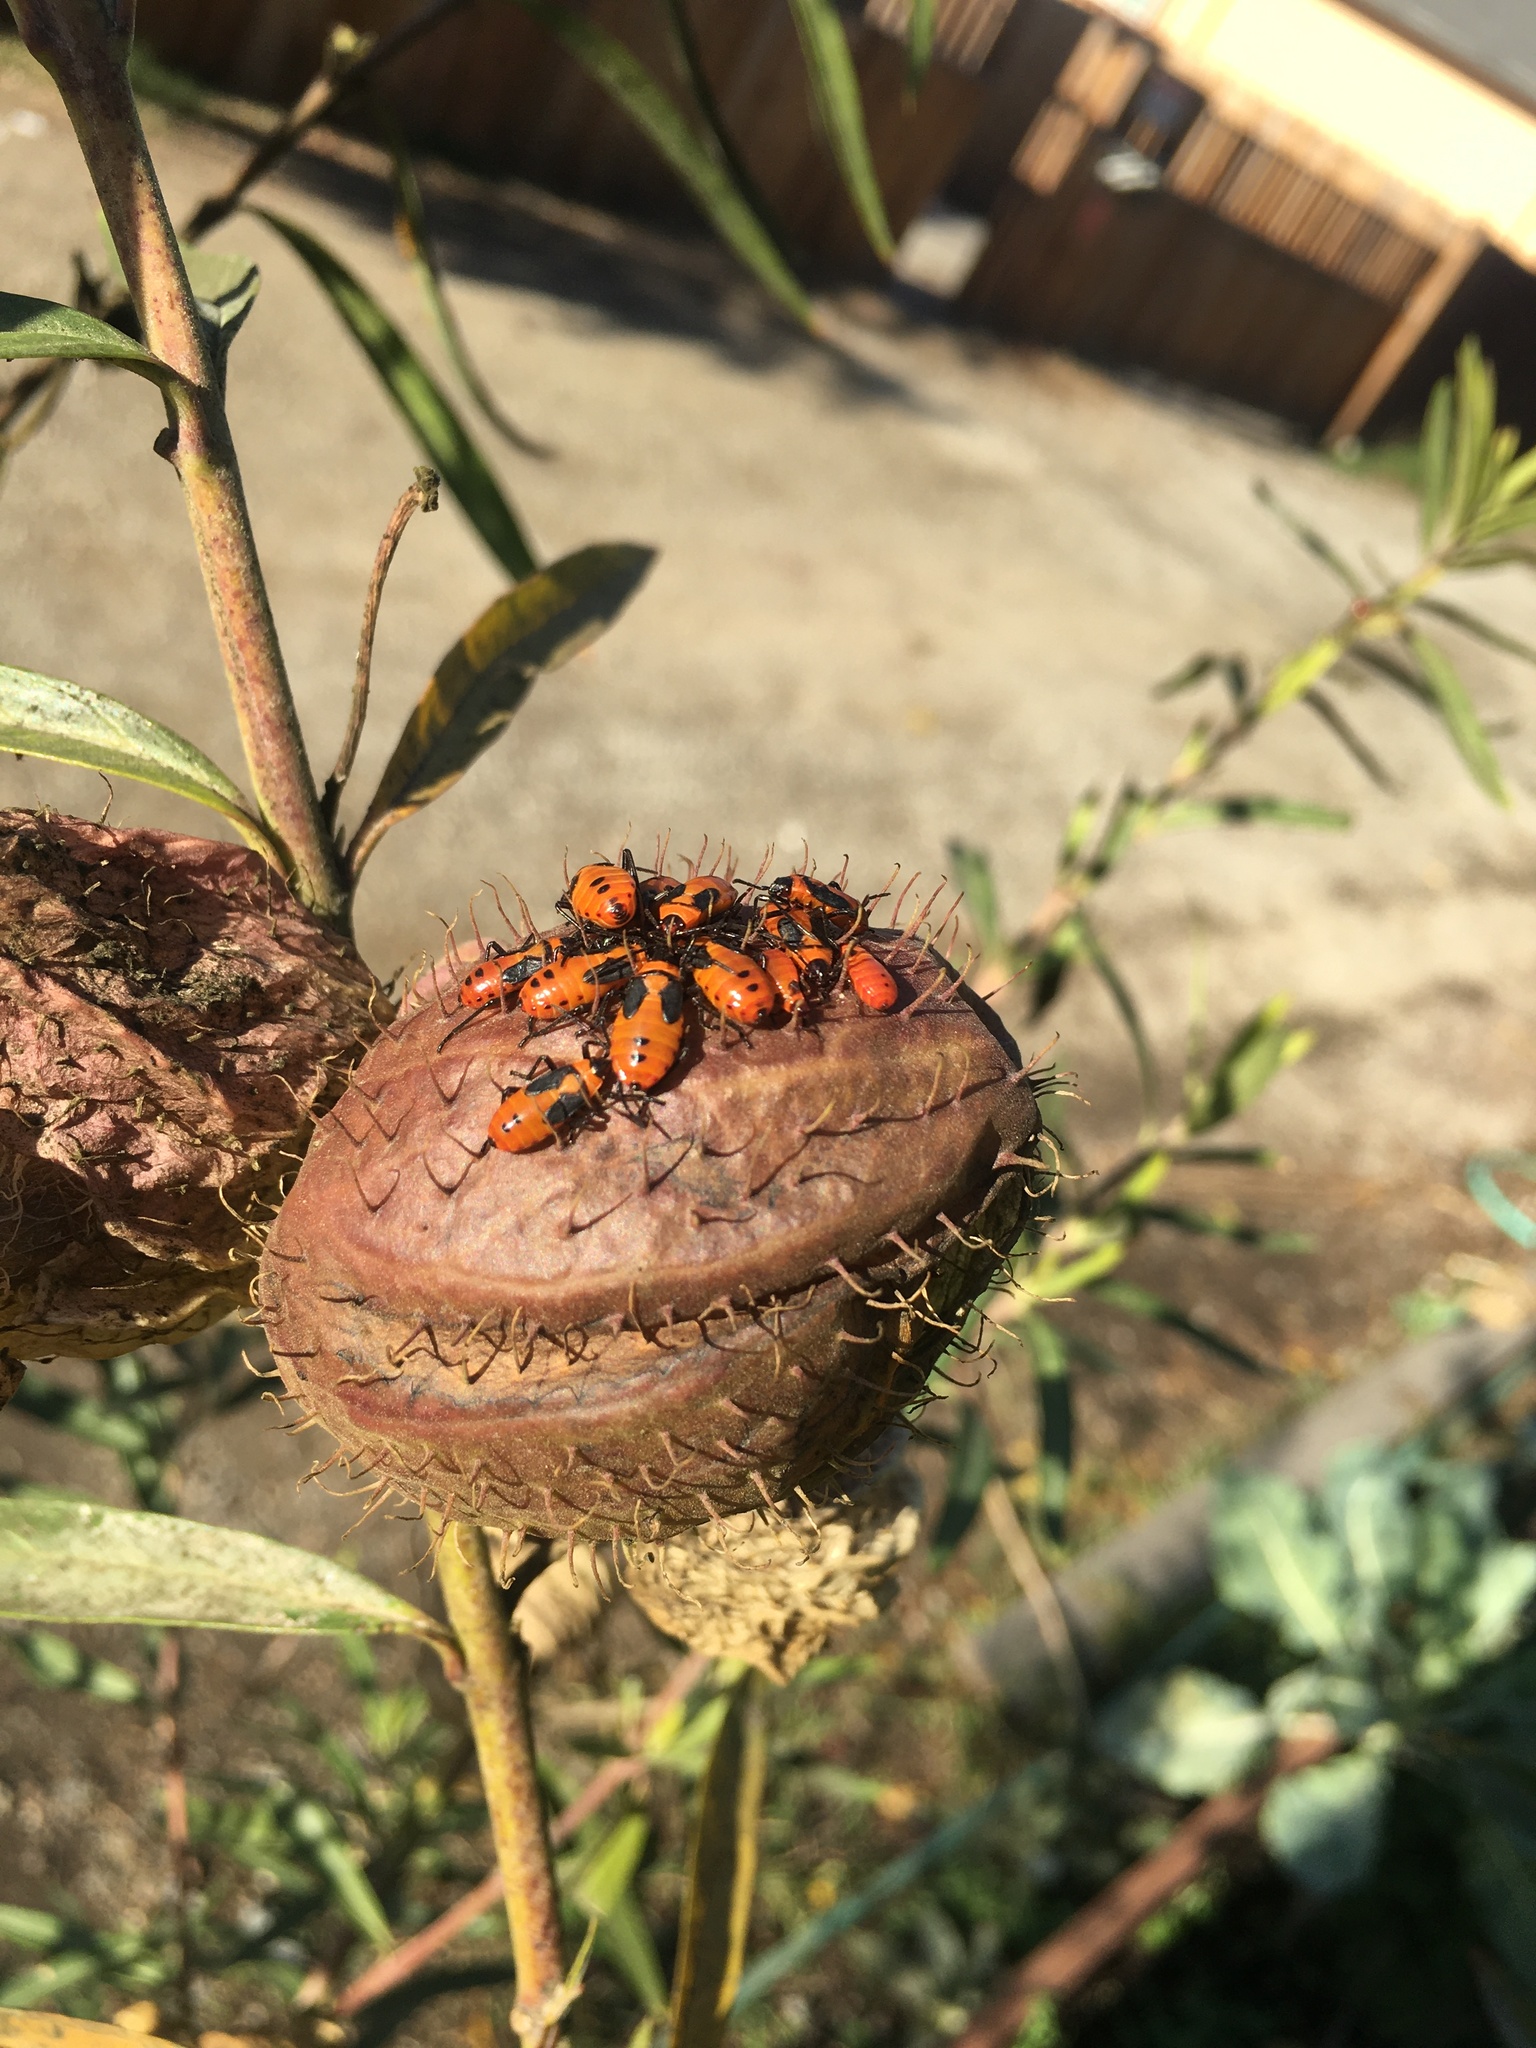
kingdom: Animalia
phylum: Arthropoda
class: Insecta
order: Hemiptera
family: Lygaeidae
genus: Oncopeltus
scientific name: Oncopeltus fasciatus
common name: Large milkweed bug
